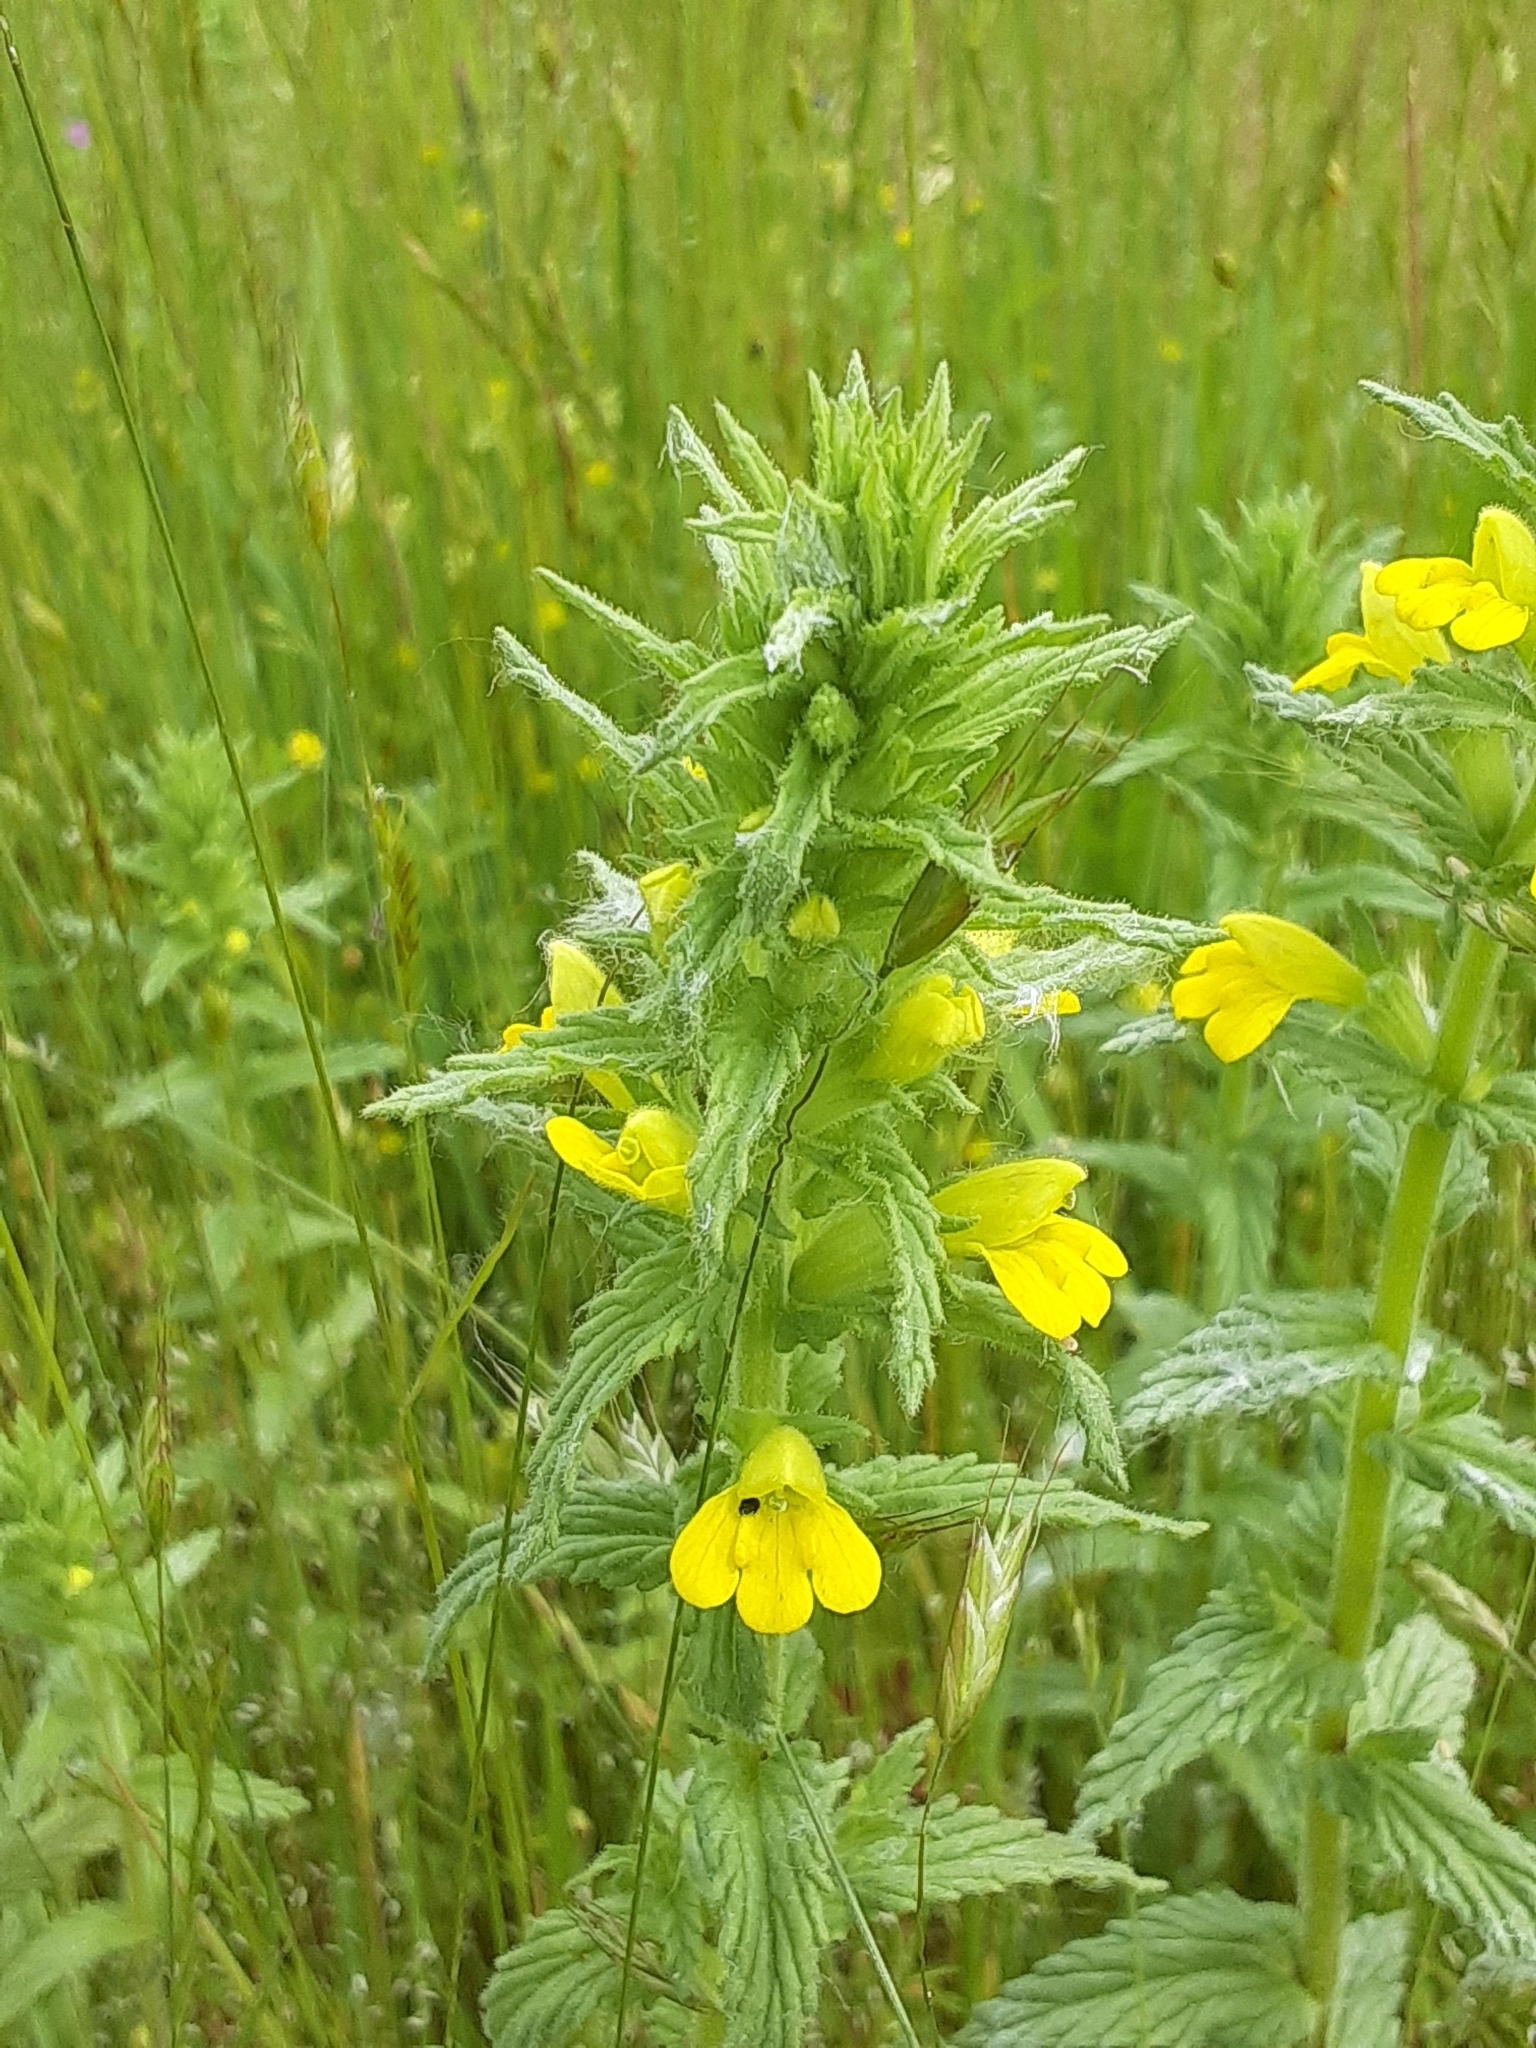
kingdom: Plantae
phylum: Tracheophyta
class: Magnoliopsida
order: Lamiales
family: Orobanchaceae
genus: Bellardia
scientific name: Bellardia viscosa
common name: Sticky parentucellia
